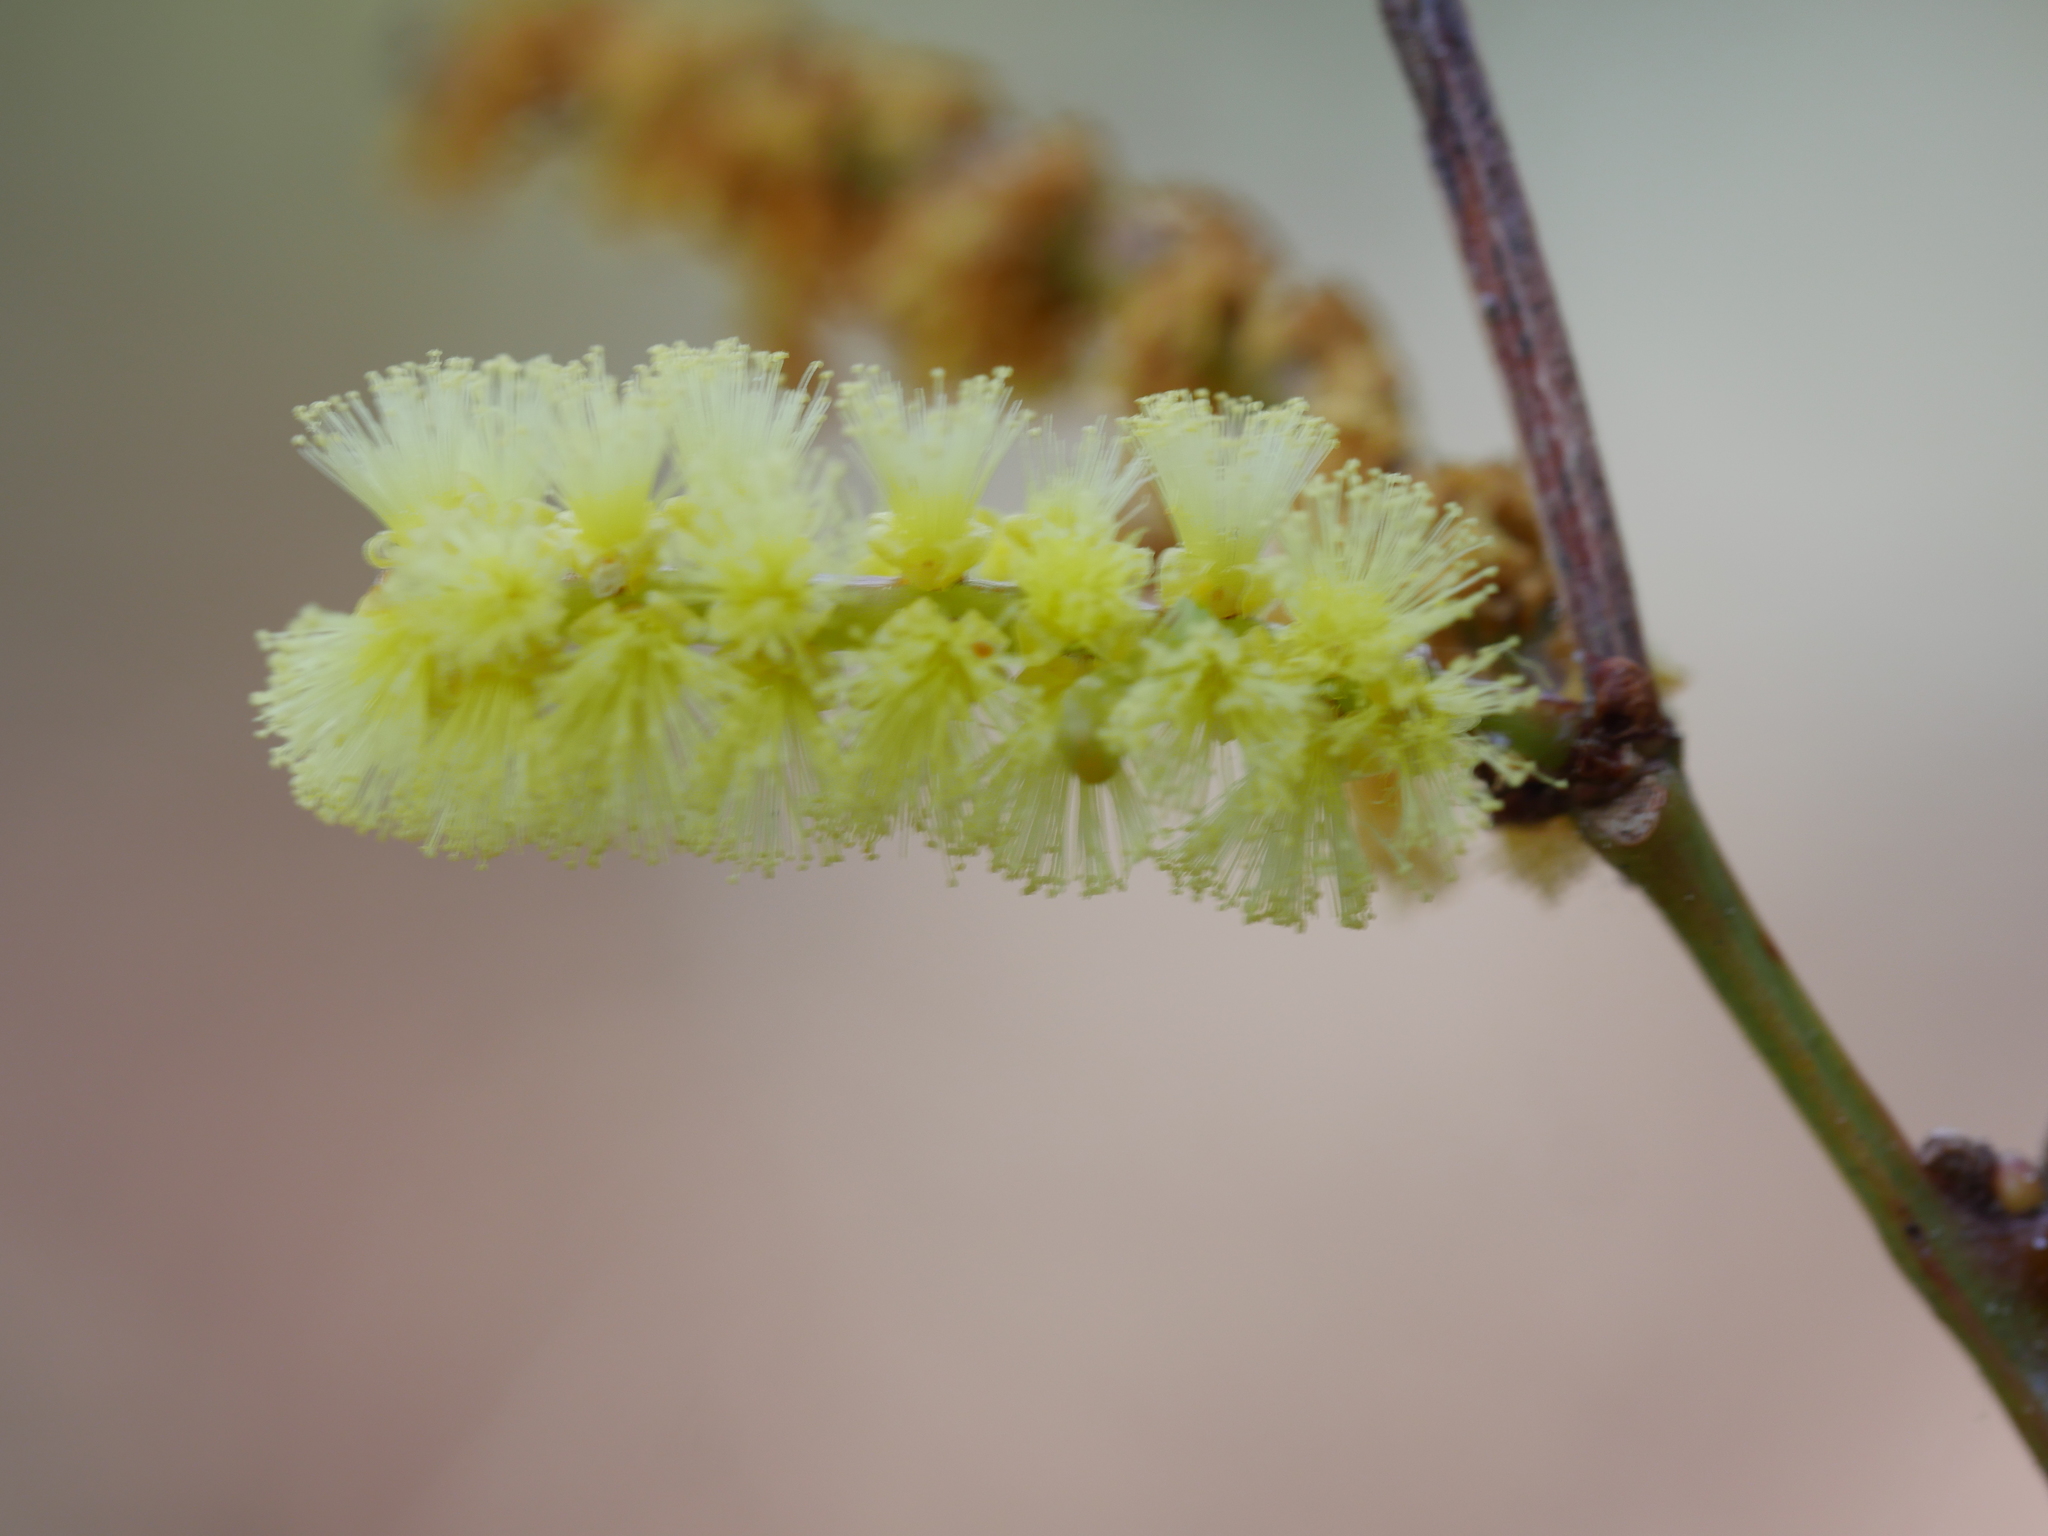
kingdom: Plantae
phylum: Tracheophyta
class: Magnoliopsida
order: Fabales
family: Fabaceae
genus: Acacia
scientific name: Acacia longifolia
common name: Sydney golden wattle
